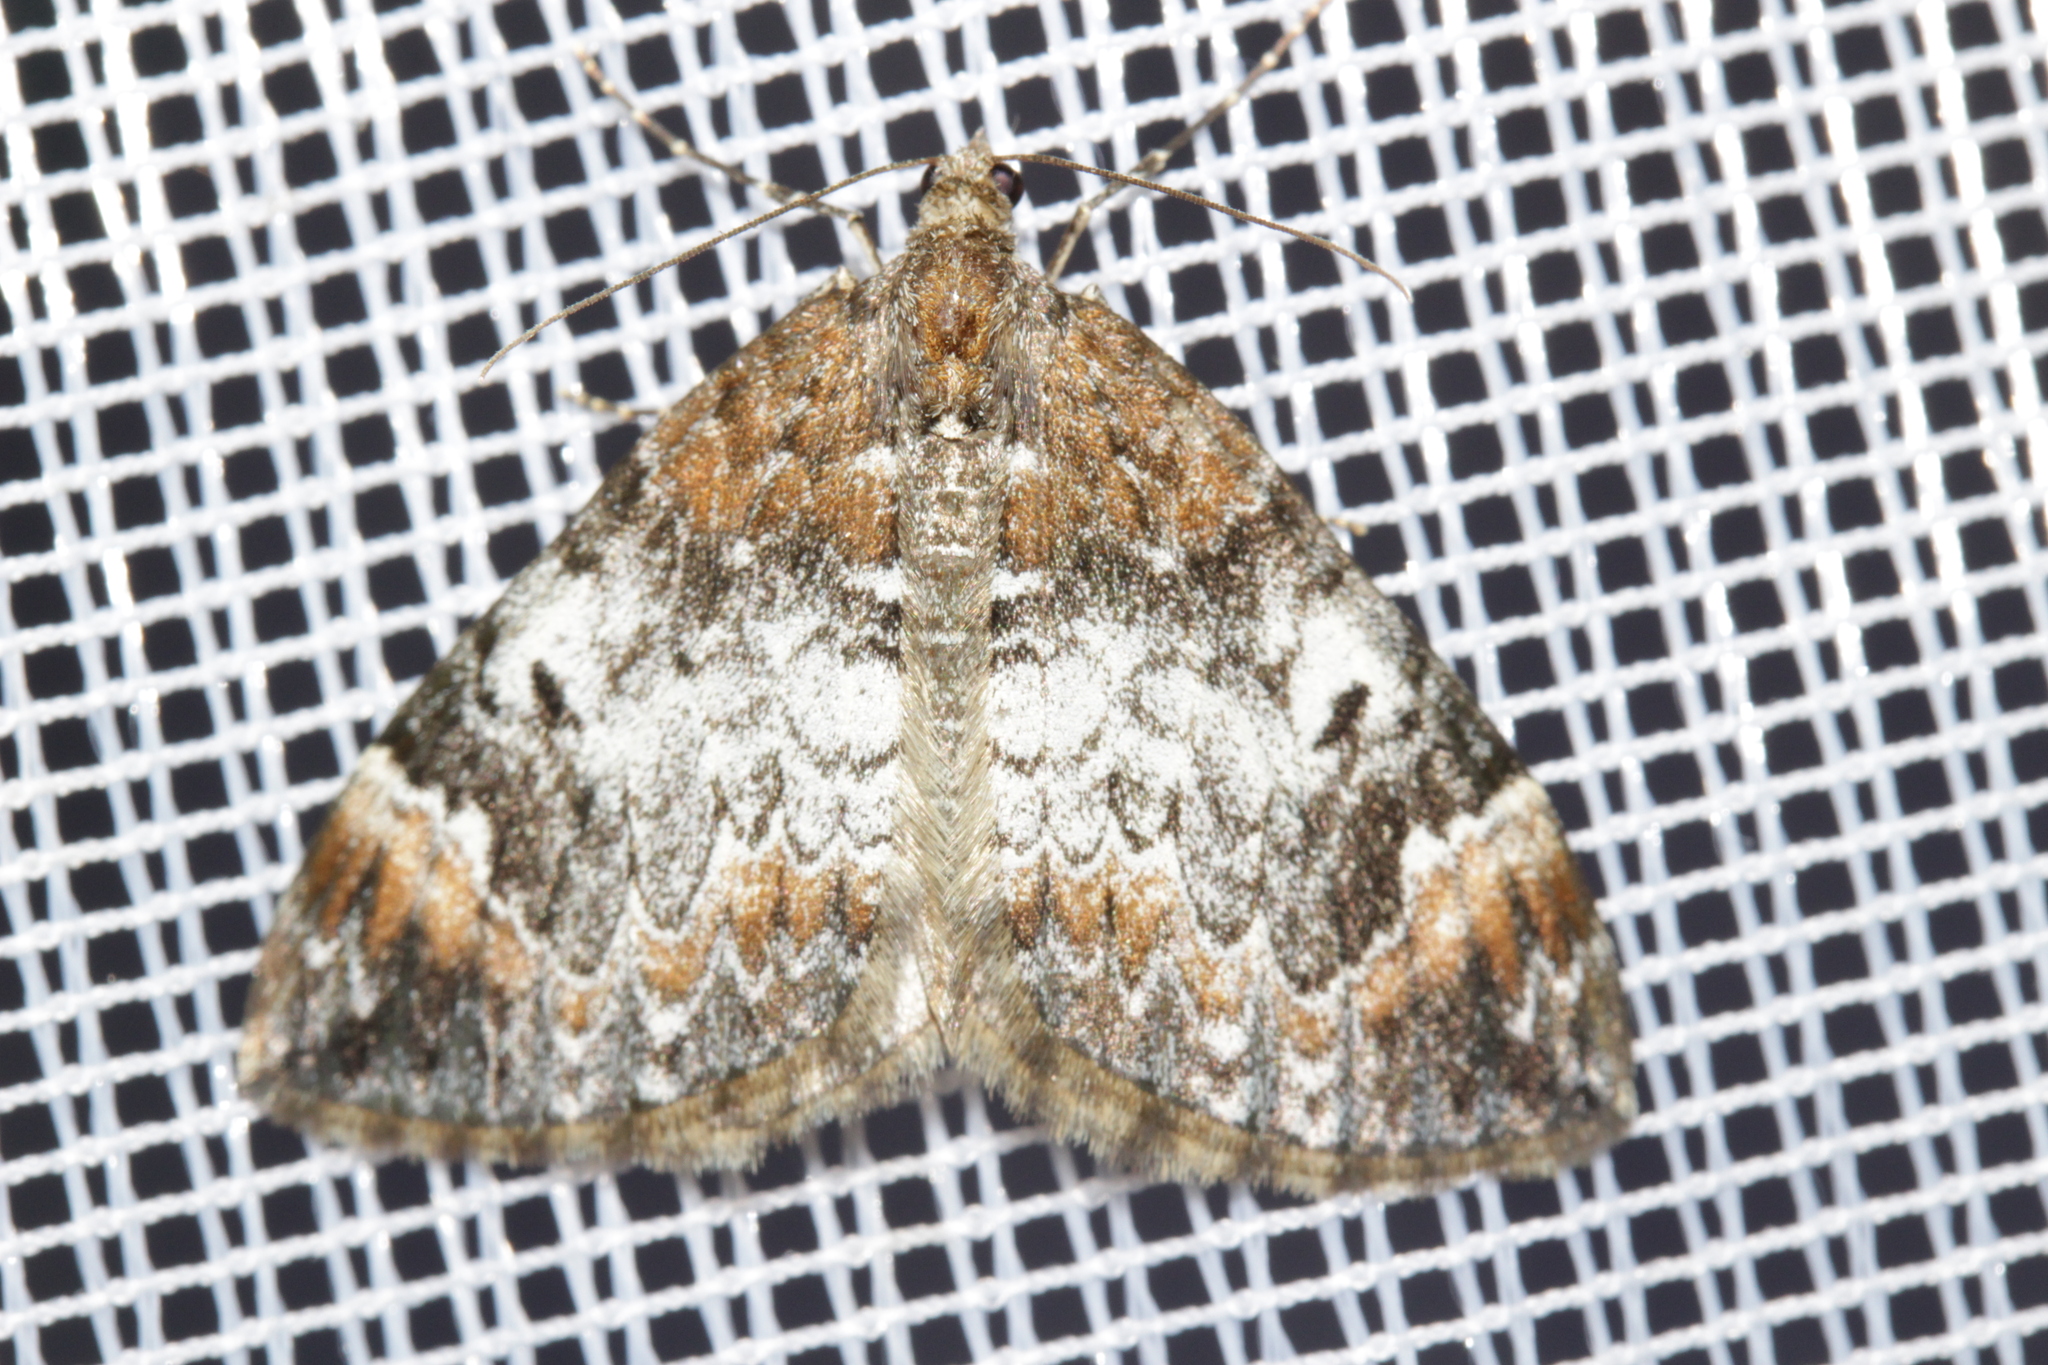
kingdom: Animalia
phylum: Arthropoda
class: Insecta
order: Lepidoptera
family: Geometridae
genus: Dysstroma
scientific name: Dysstroma truncata
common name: Common marbled carpet
